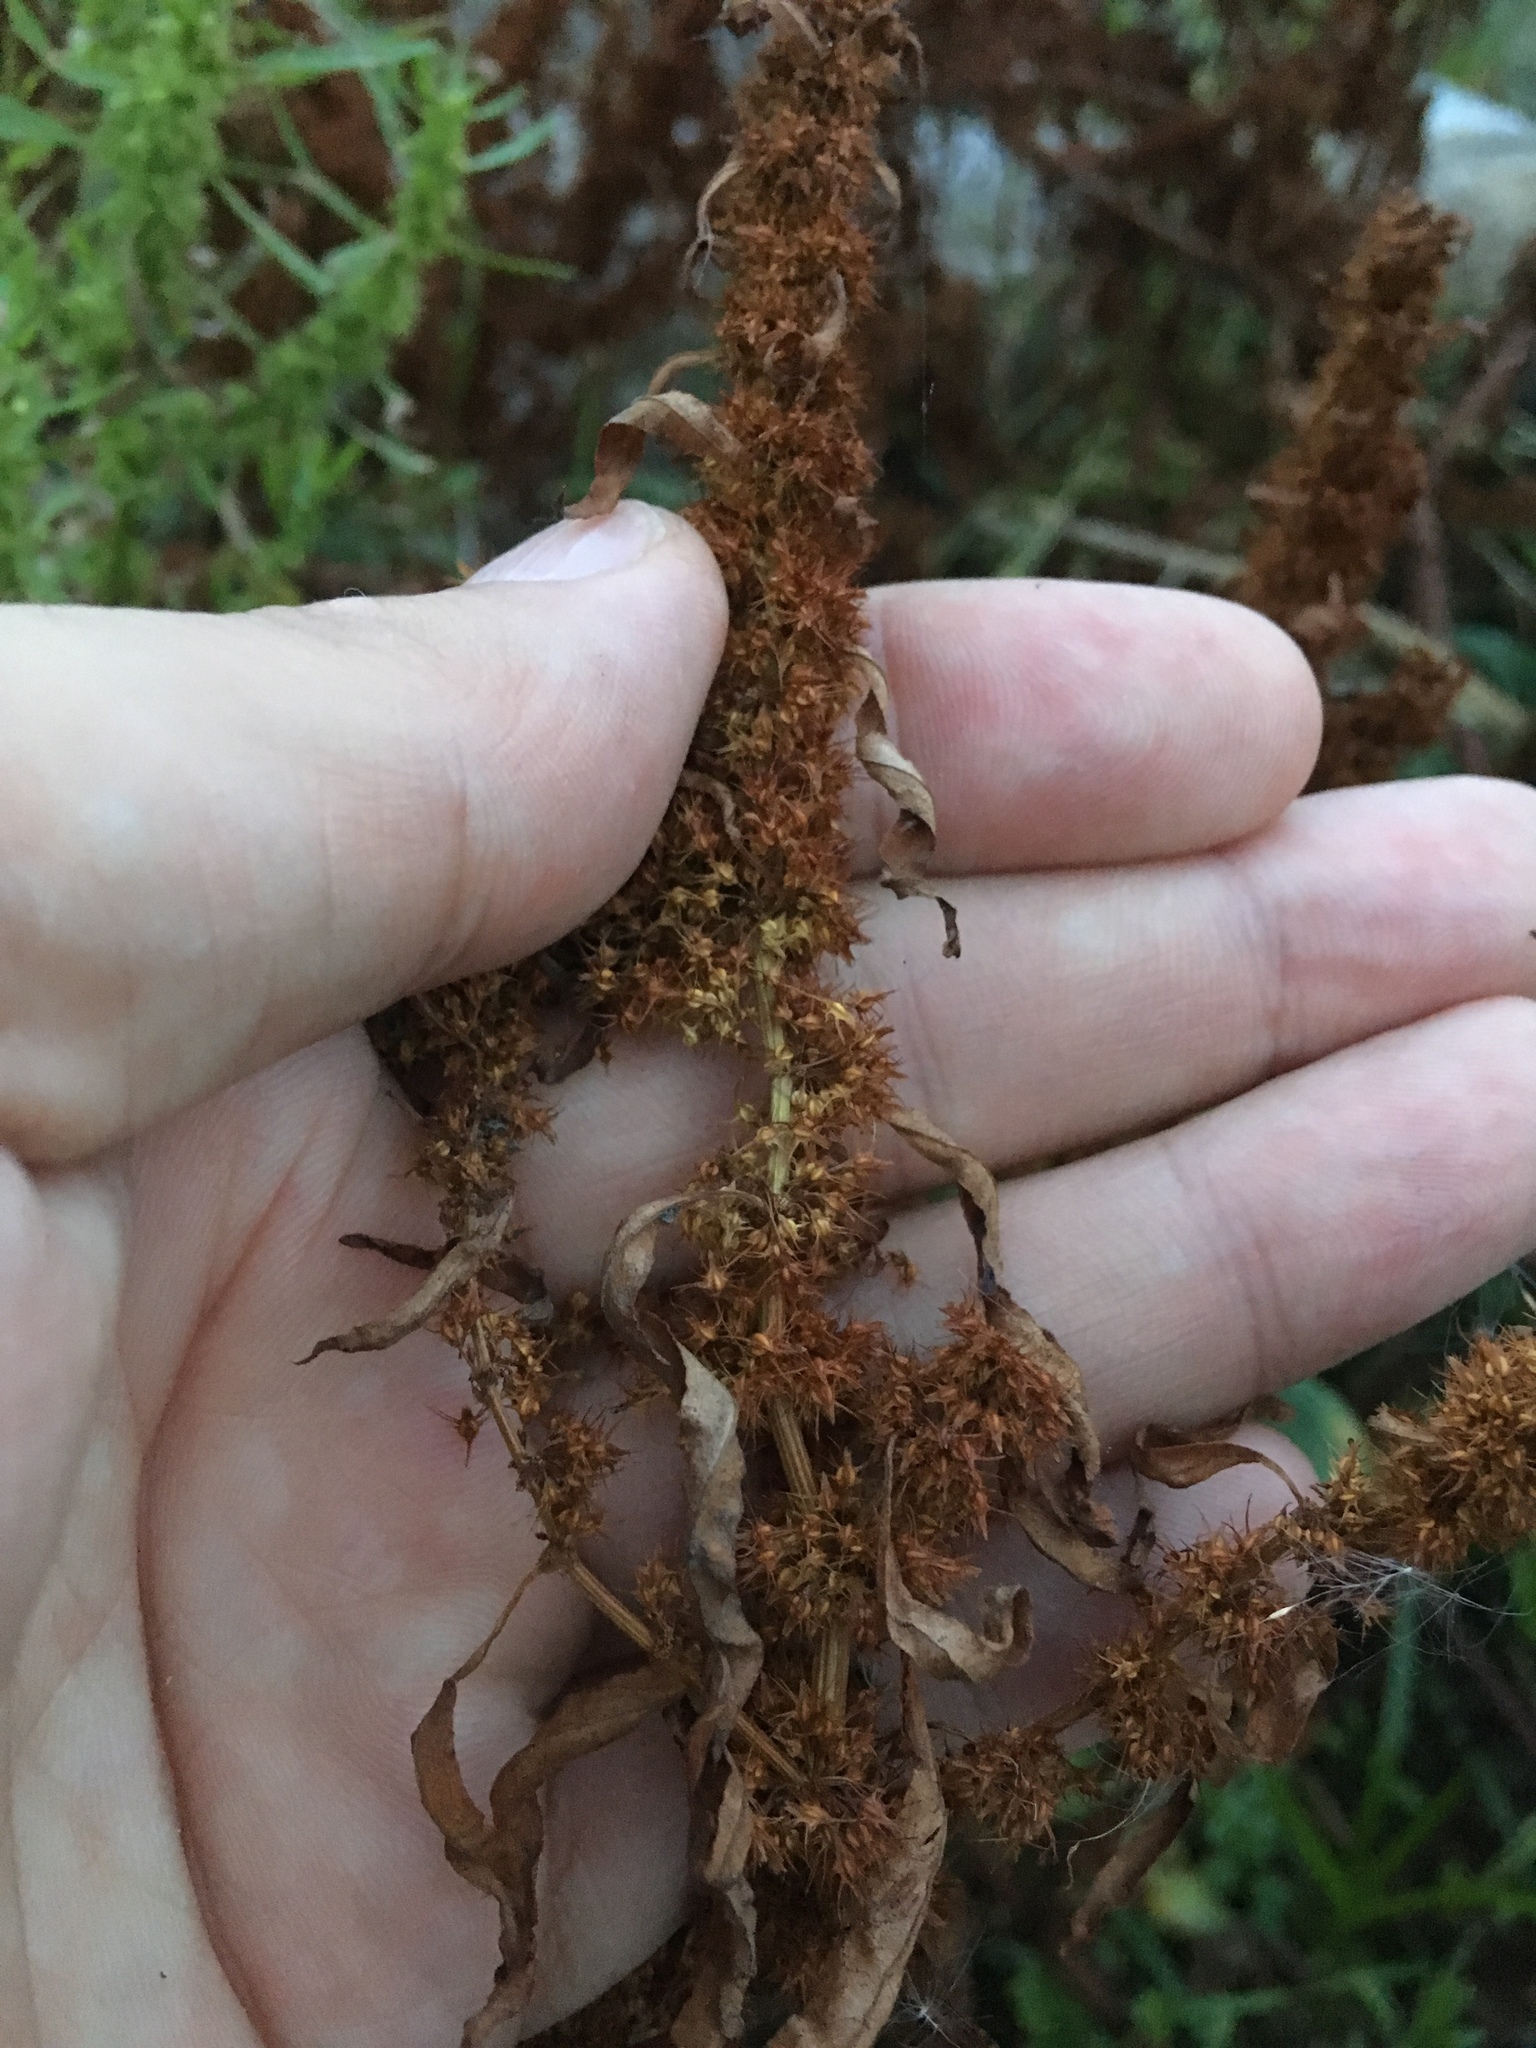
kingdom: Plantae
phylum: Tracheophyta
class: Magnoliopsida
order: Caryophyllales
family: Polygonaceae
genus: Rumex
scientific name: Rumex maritimus
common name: Golden dock
